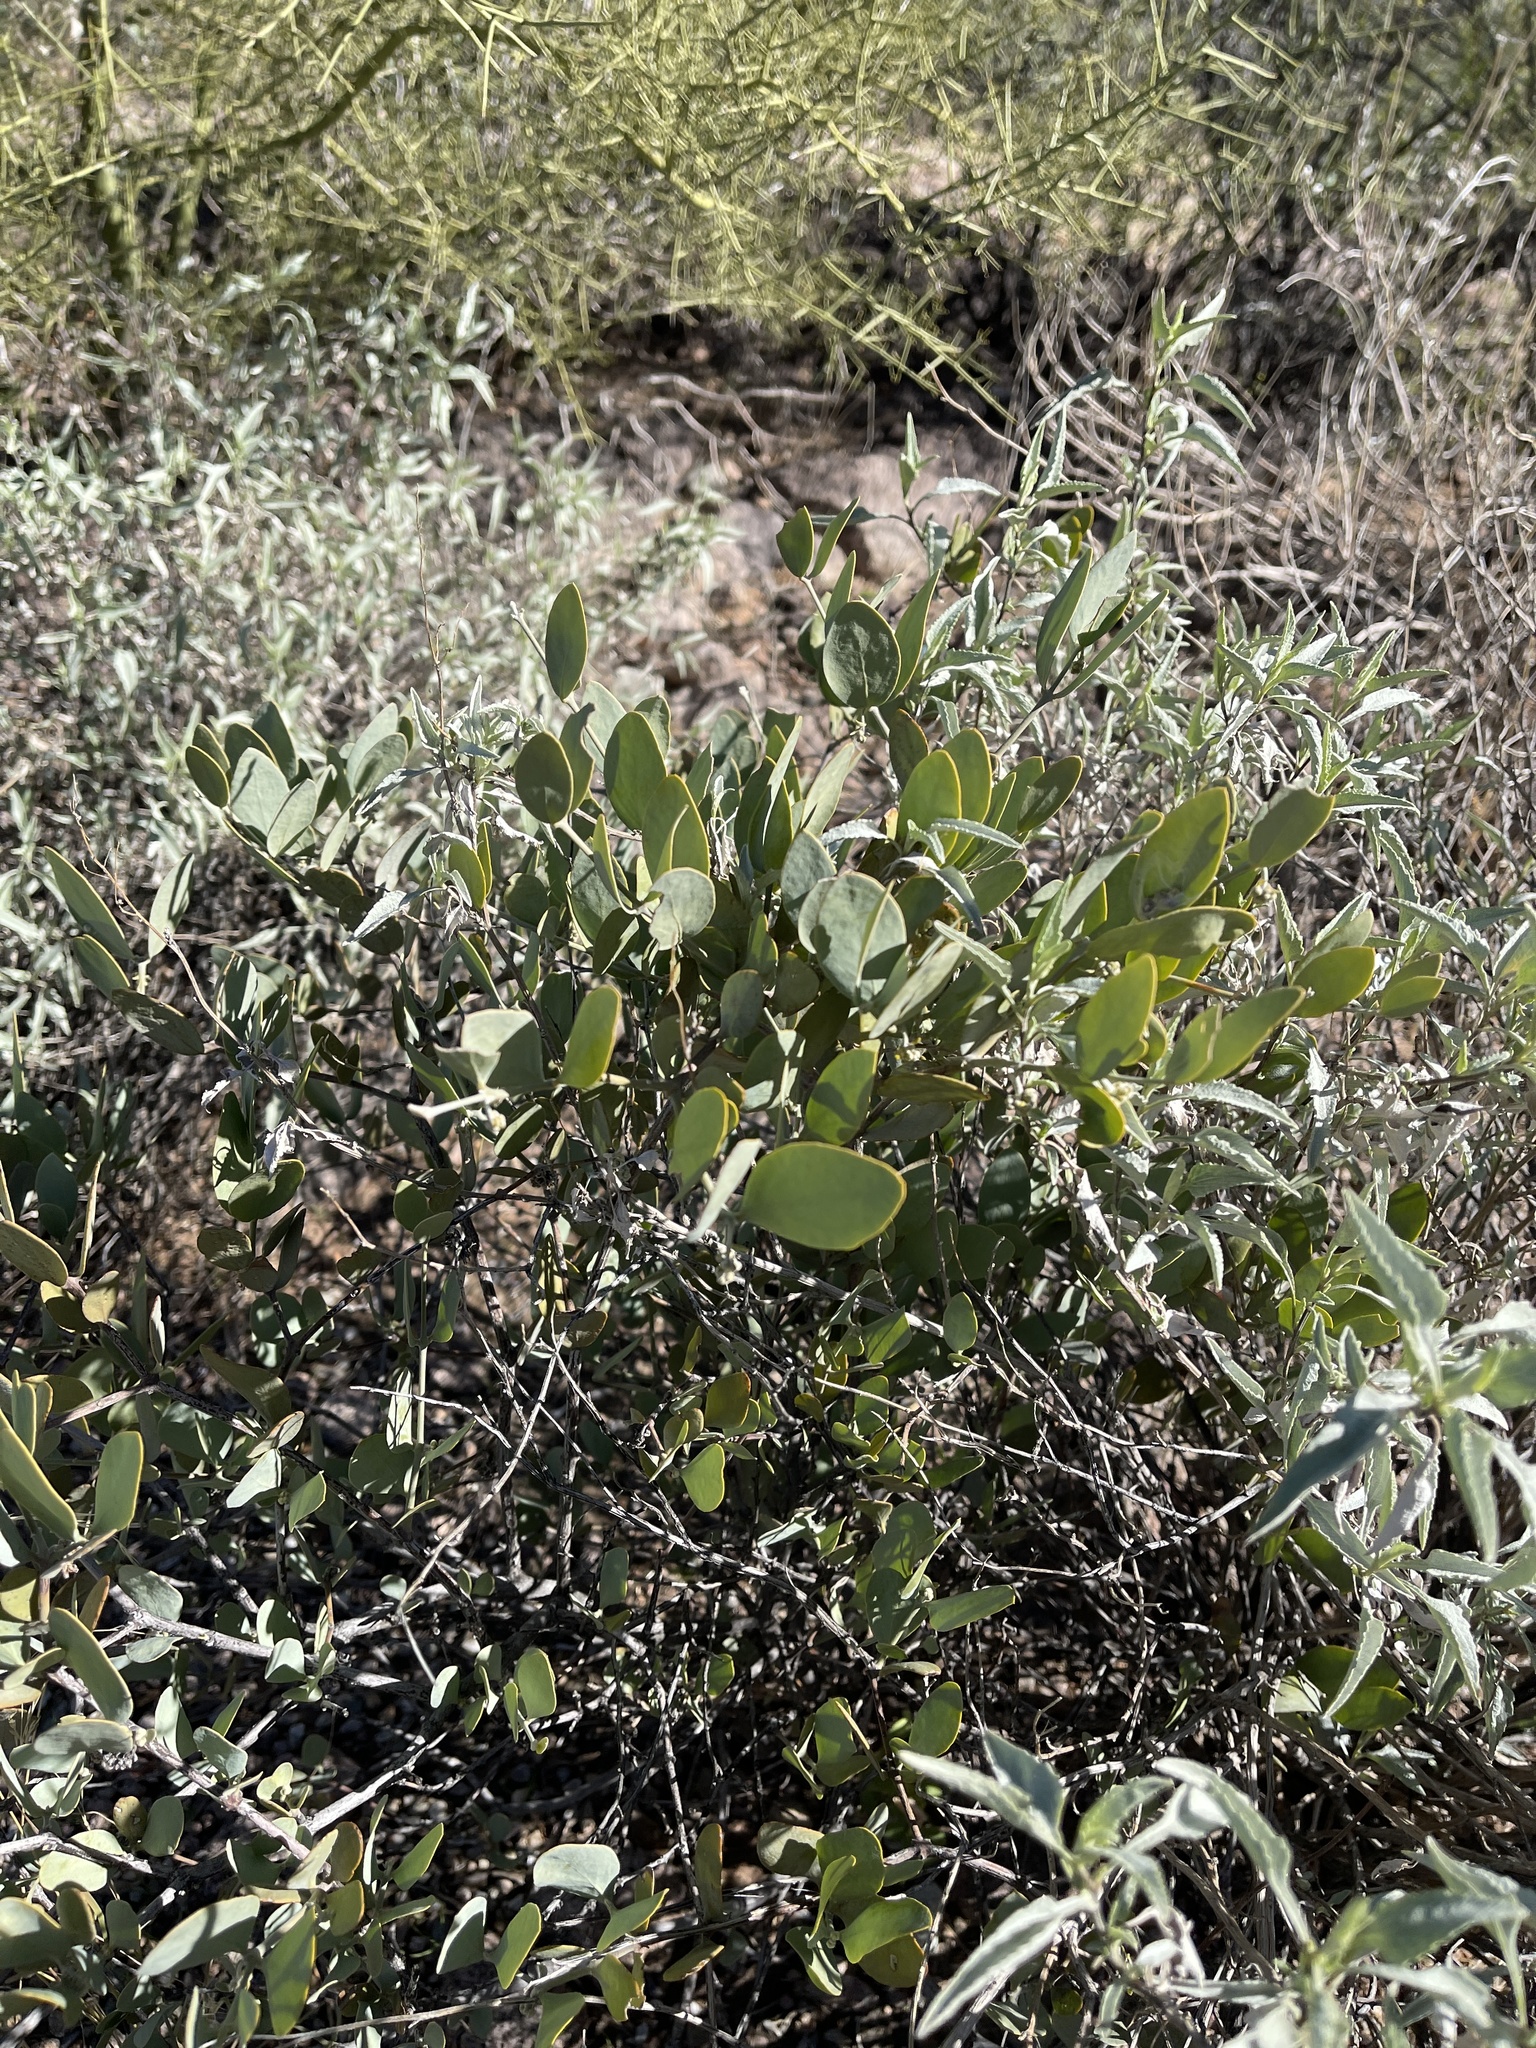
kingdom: Plantae
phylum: Tracheophyta
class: Magnoliopsida
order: Caryophyllales
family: Simmondsiaceae
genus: Simmondsia
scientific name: Simmondsia chinensis
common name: Jojoba
